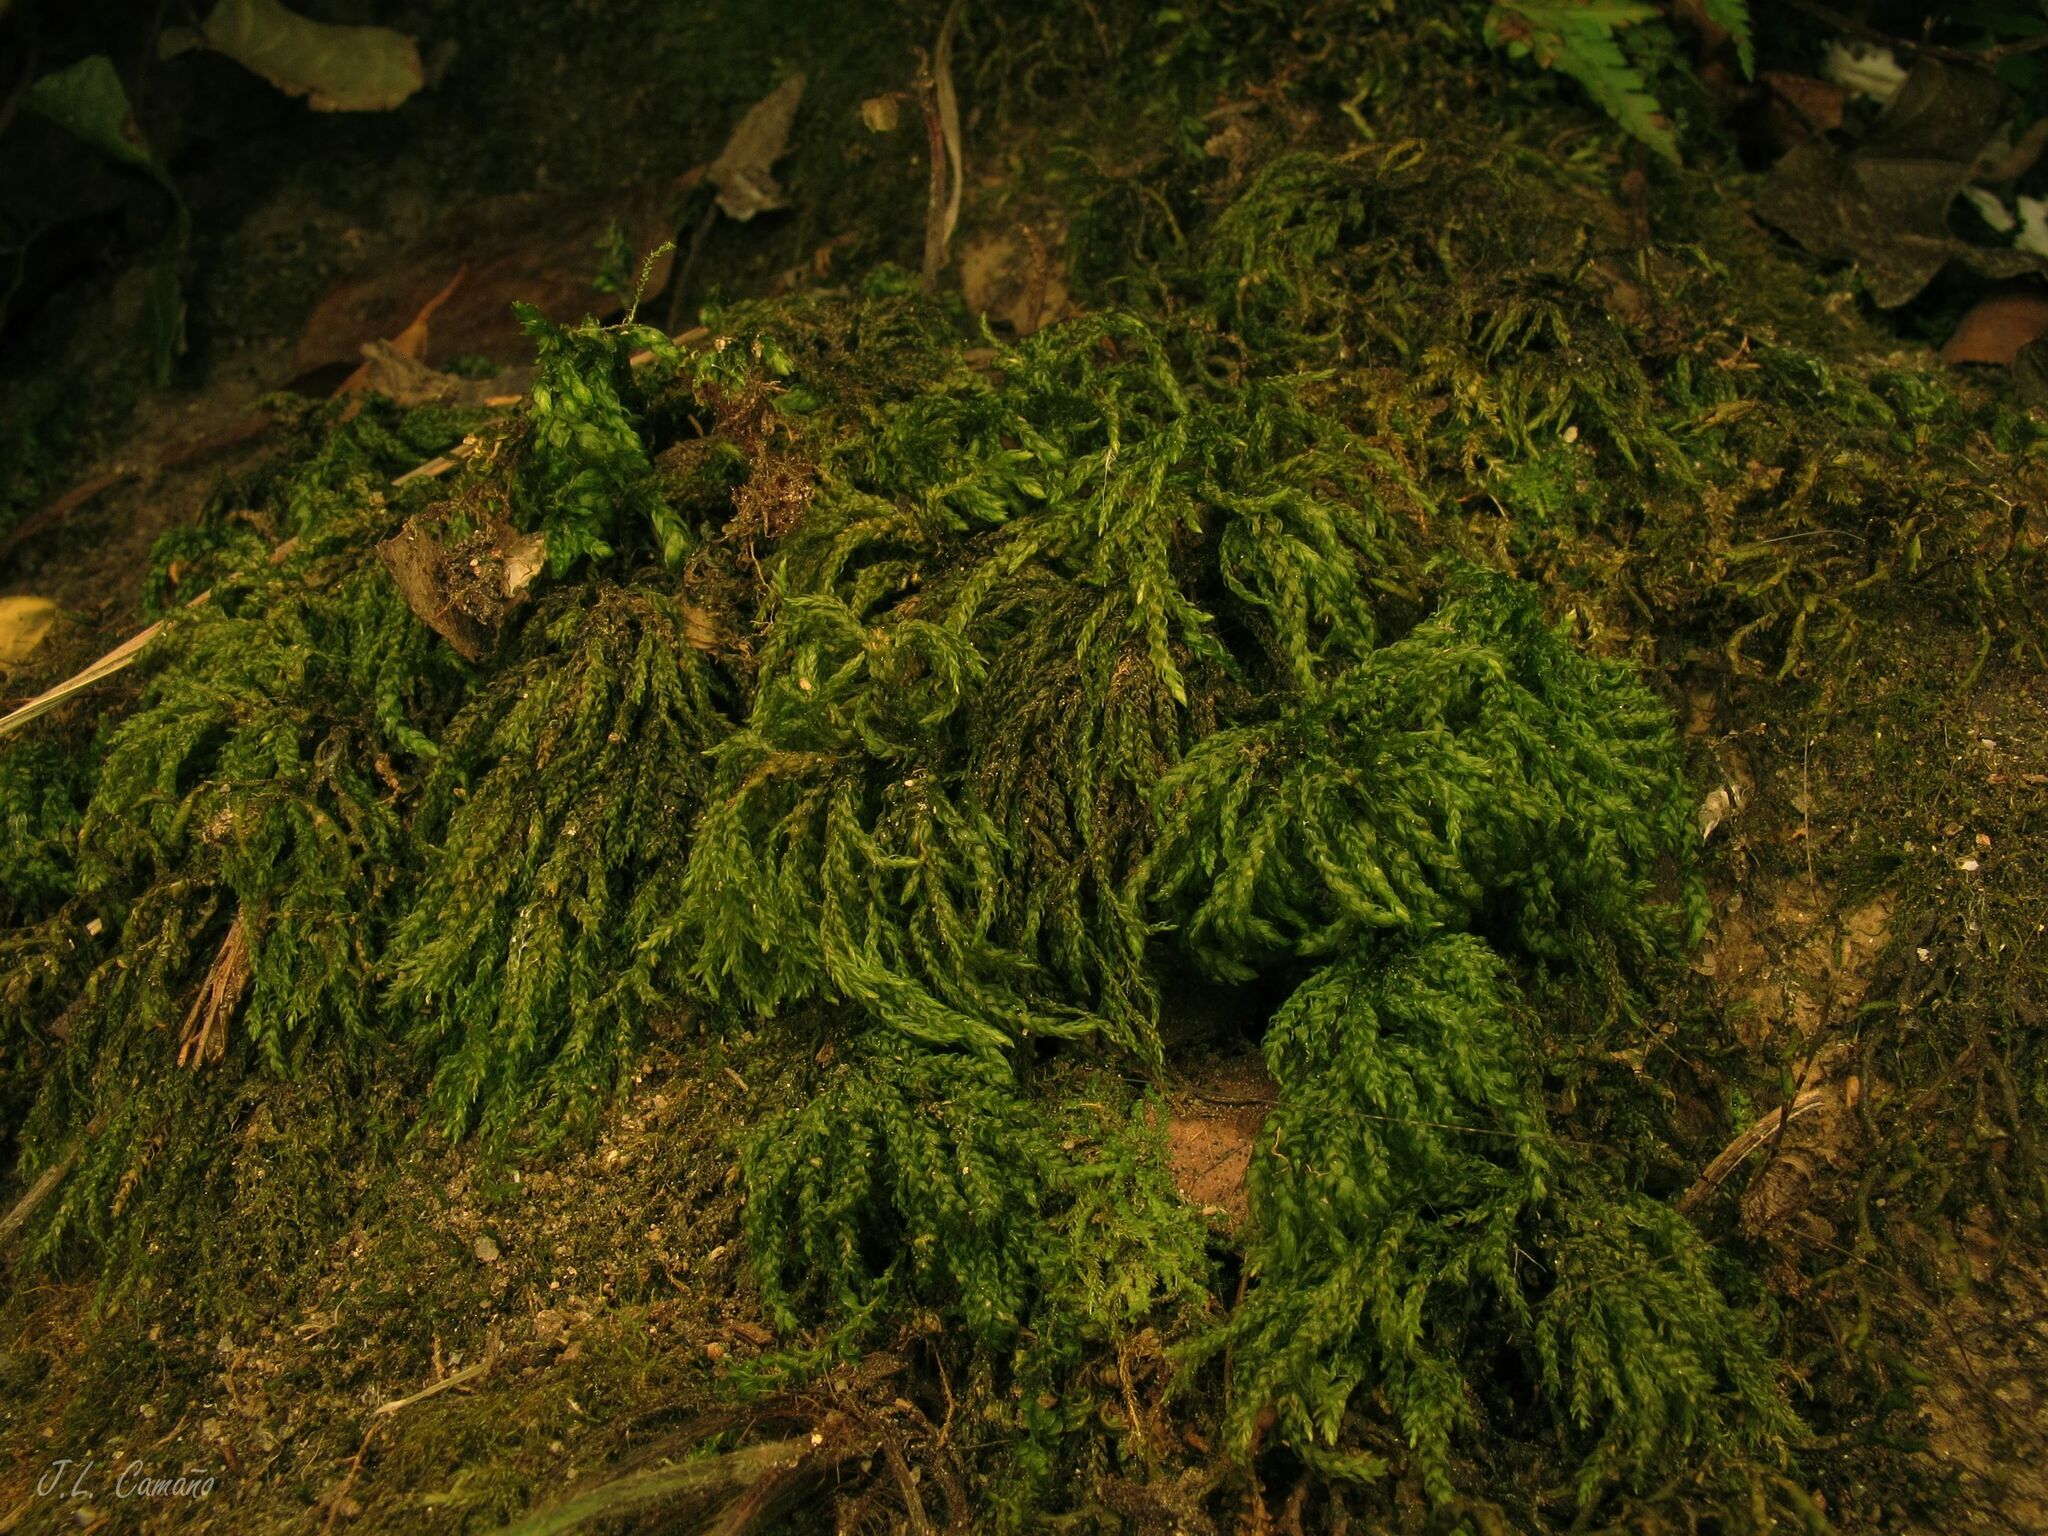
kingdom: Plantae
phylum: Bryophyta
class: Bryopsida
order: Hypnales
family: Neckeraceae
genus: Thamnobryum
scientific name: Thamnobryum alopecurum
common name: Fox-tail feather-moss
